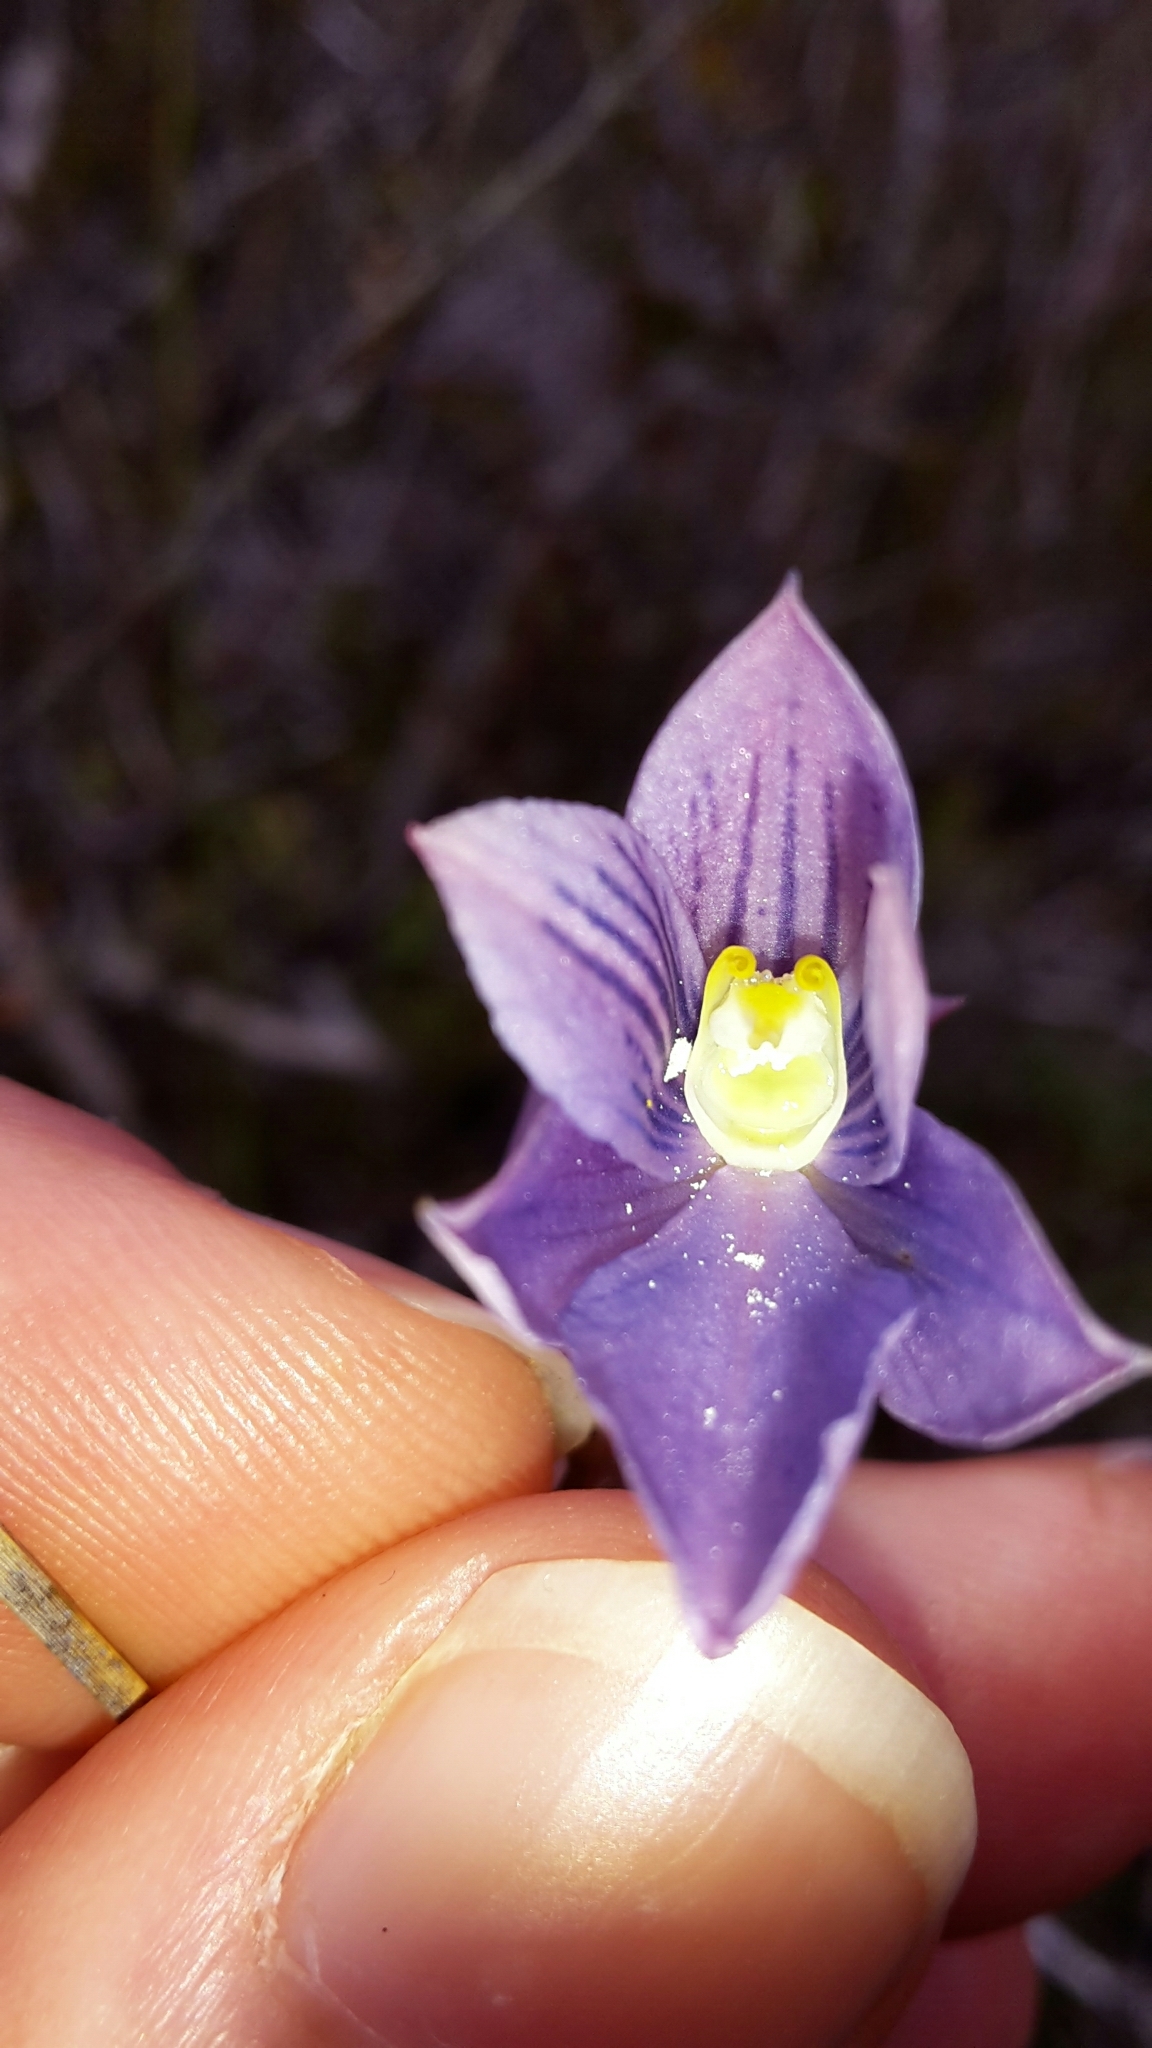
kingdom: Plantae
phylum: Tracheophyta
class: Liliopsida
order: Asparagales
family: Orchidaceae
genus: Thelymitra
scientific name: Thelymitra cyanea
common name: Blue sun-orchid
